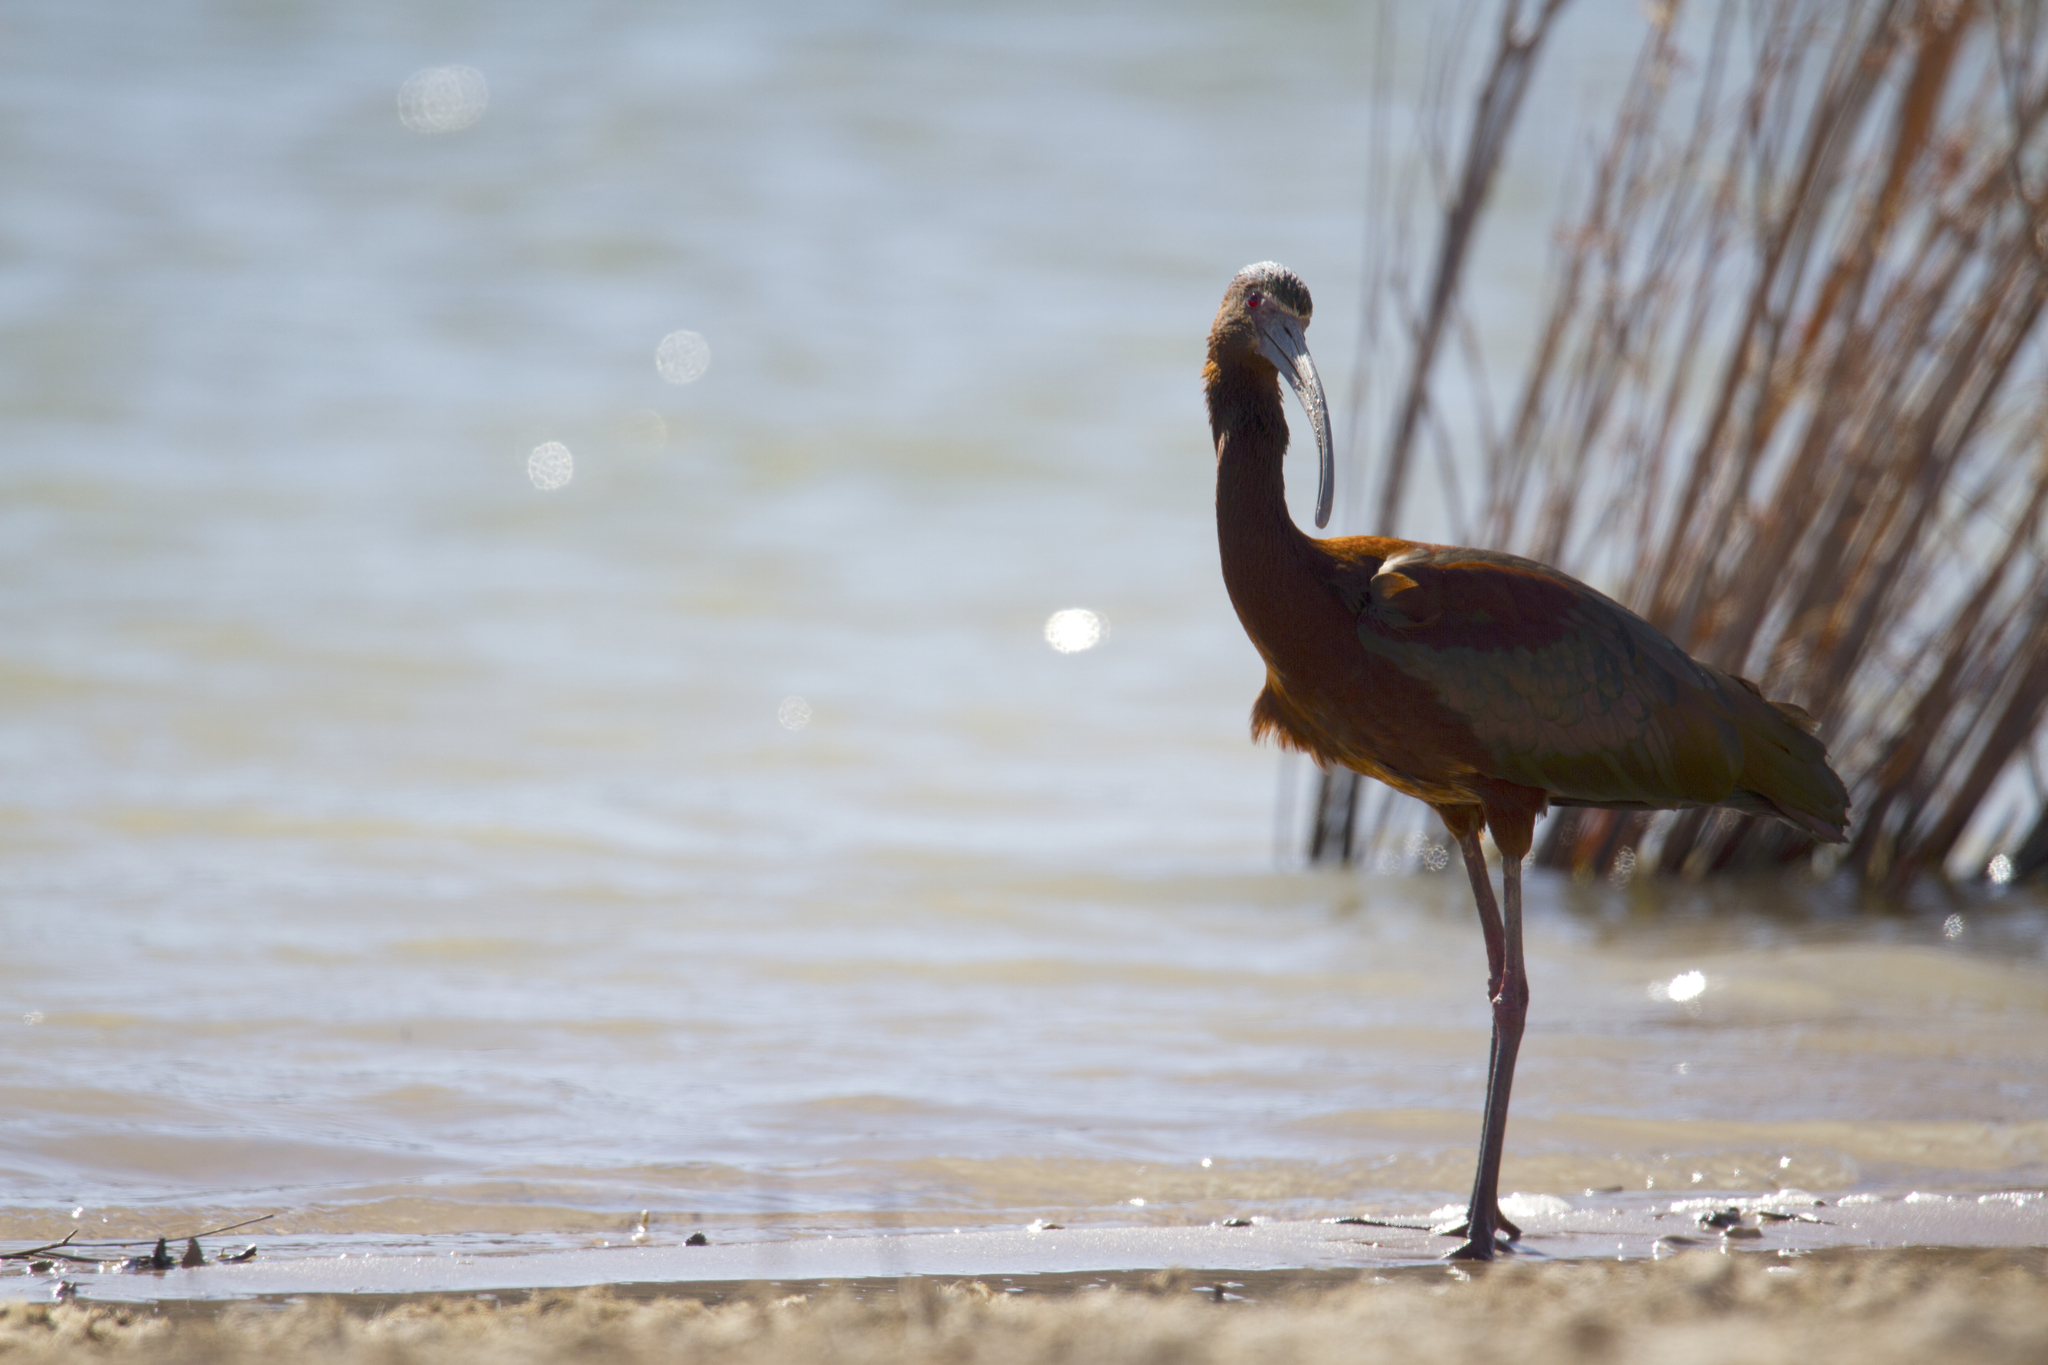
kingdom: Animalia
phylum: Chordata
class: Aves
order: Pelecaniformes
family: Threskiornithidae
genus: Plegadis
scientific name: Plegadis chihi
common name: White-faced ibis
